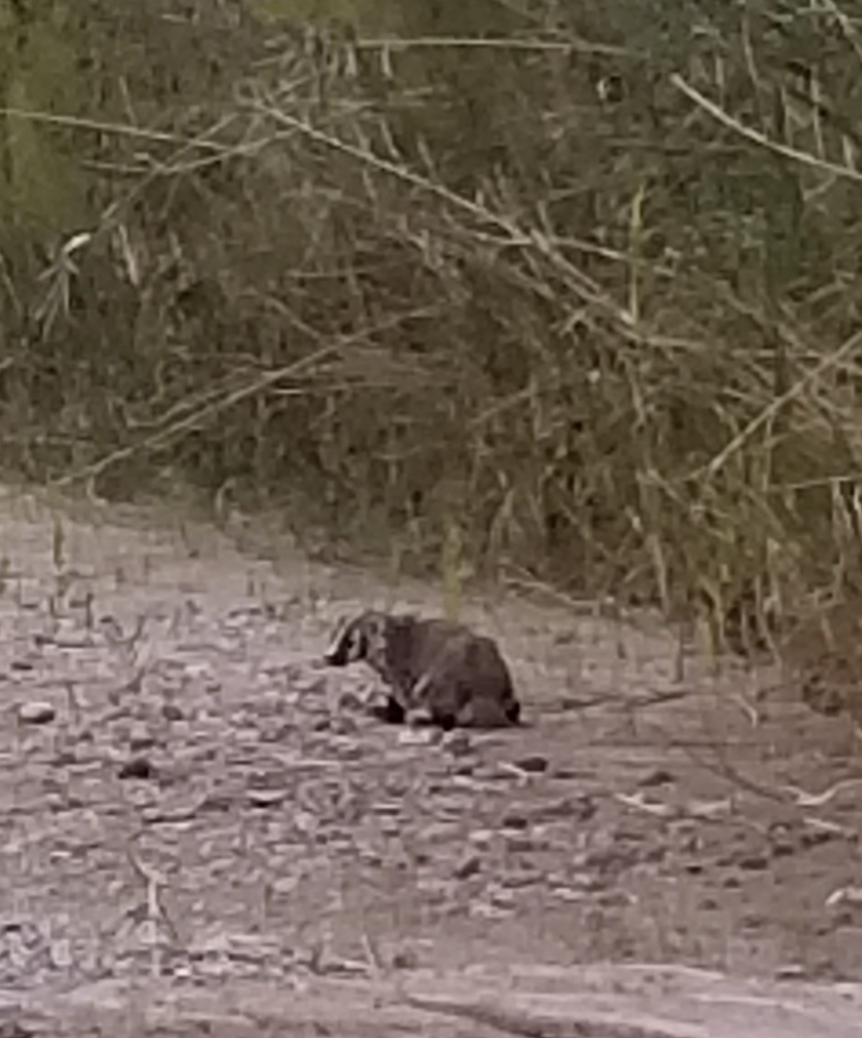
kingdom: Animalia
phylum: Chordata
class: Mammalia
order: Carnivora
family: Mustelidae
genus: Taxidea
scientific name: Taxidea taxus
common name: American badger
